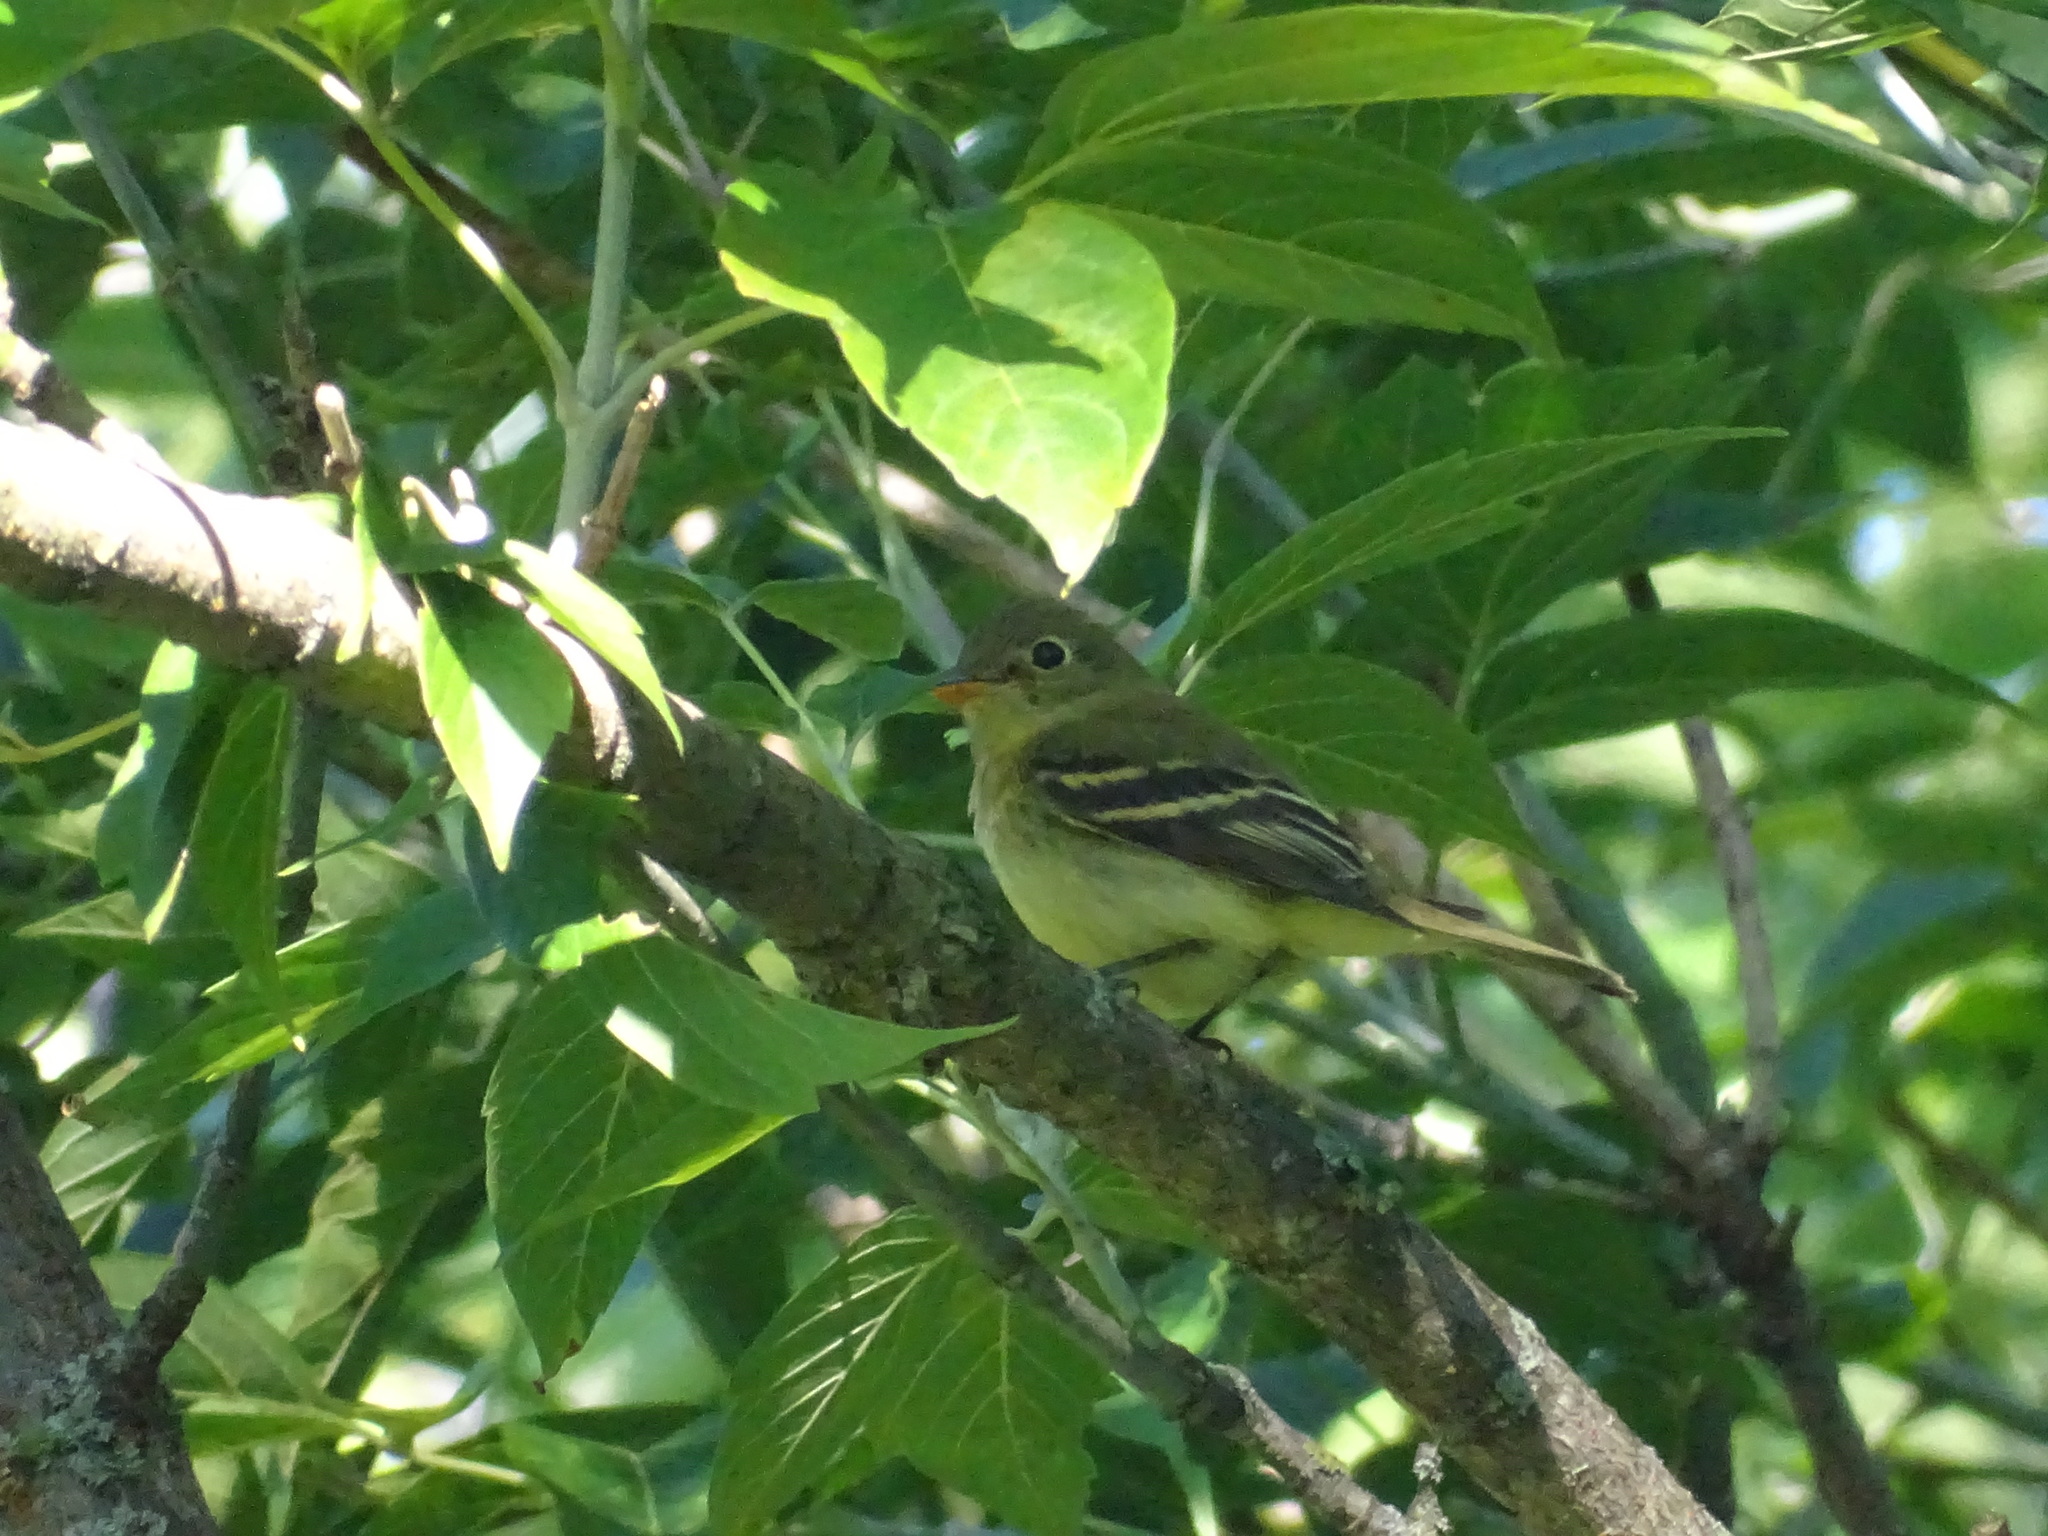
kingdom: Animalia
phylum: Chordata
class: Aves
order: Passeriformes
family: Tyrannidae
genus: Empidonax
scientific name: Empidonax flaviventris
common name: Yellow-bellied flycatcher
